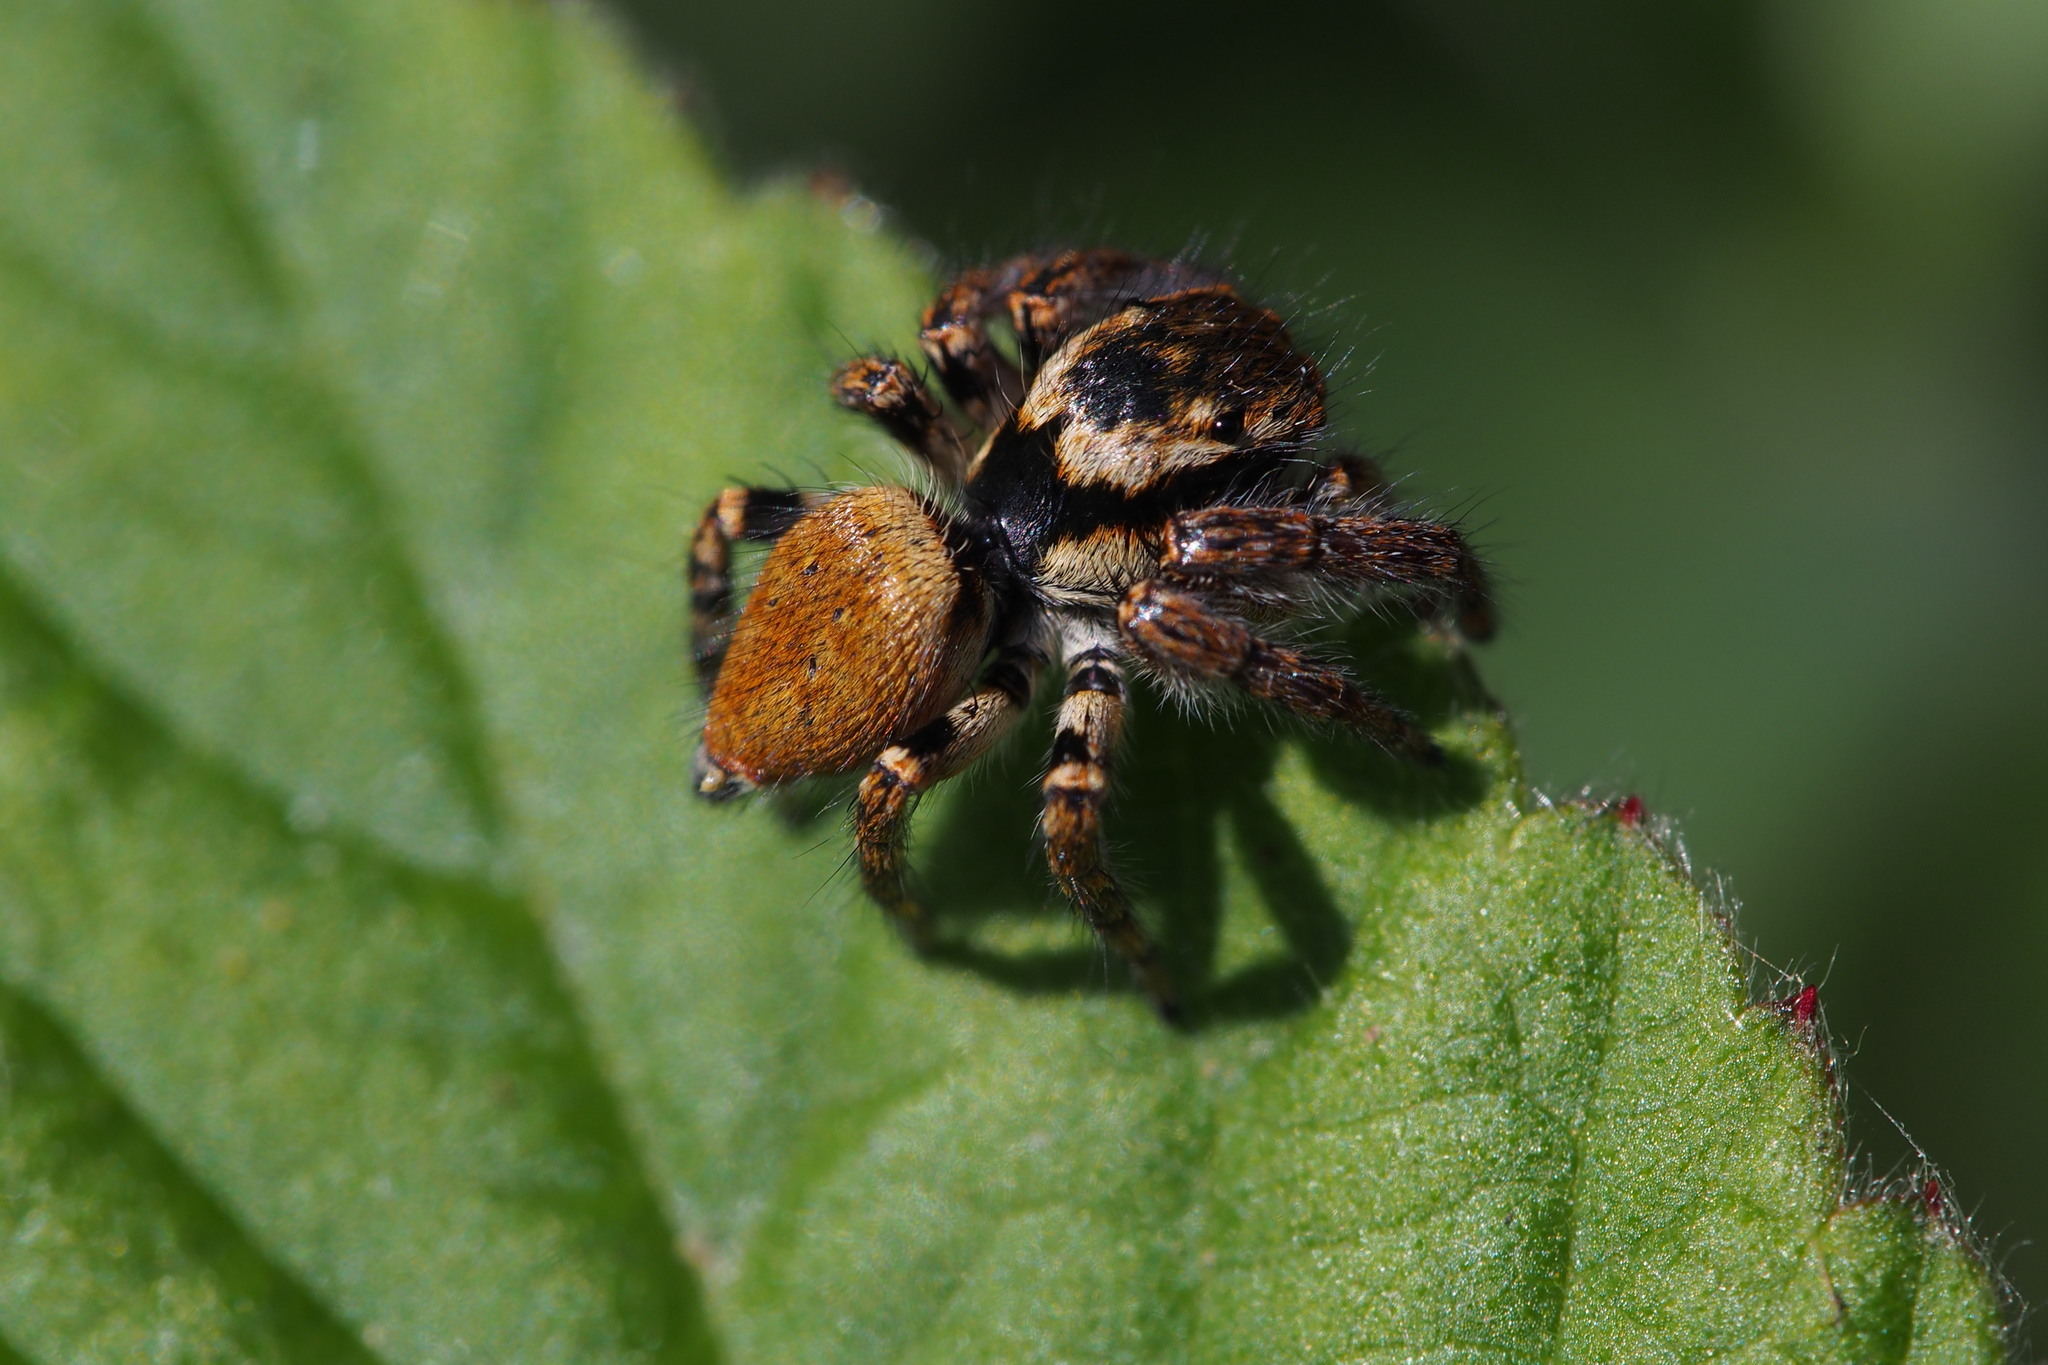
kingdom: Animalia
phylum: Arthropoda
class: Arachnida
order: Araneae
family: Salticidae
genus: Carrhotus
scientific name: Carrhotus xanthogramma
